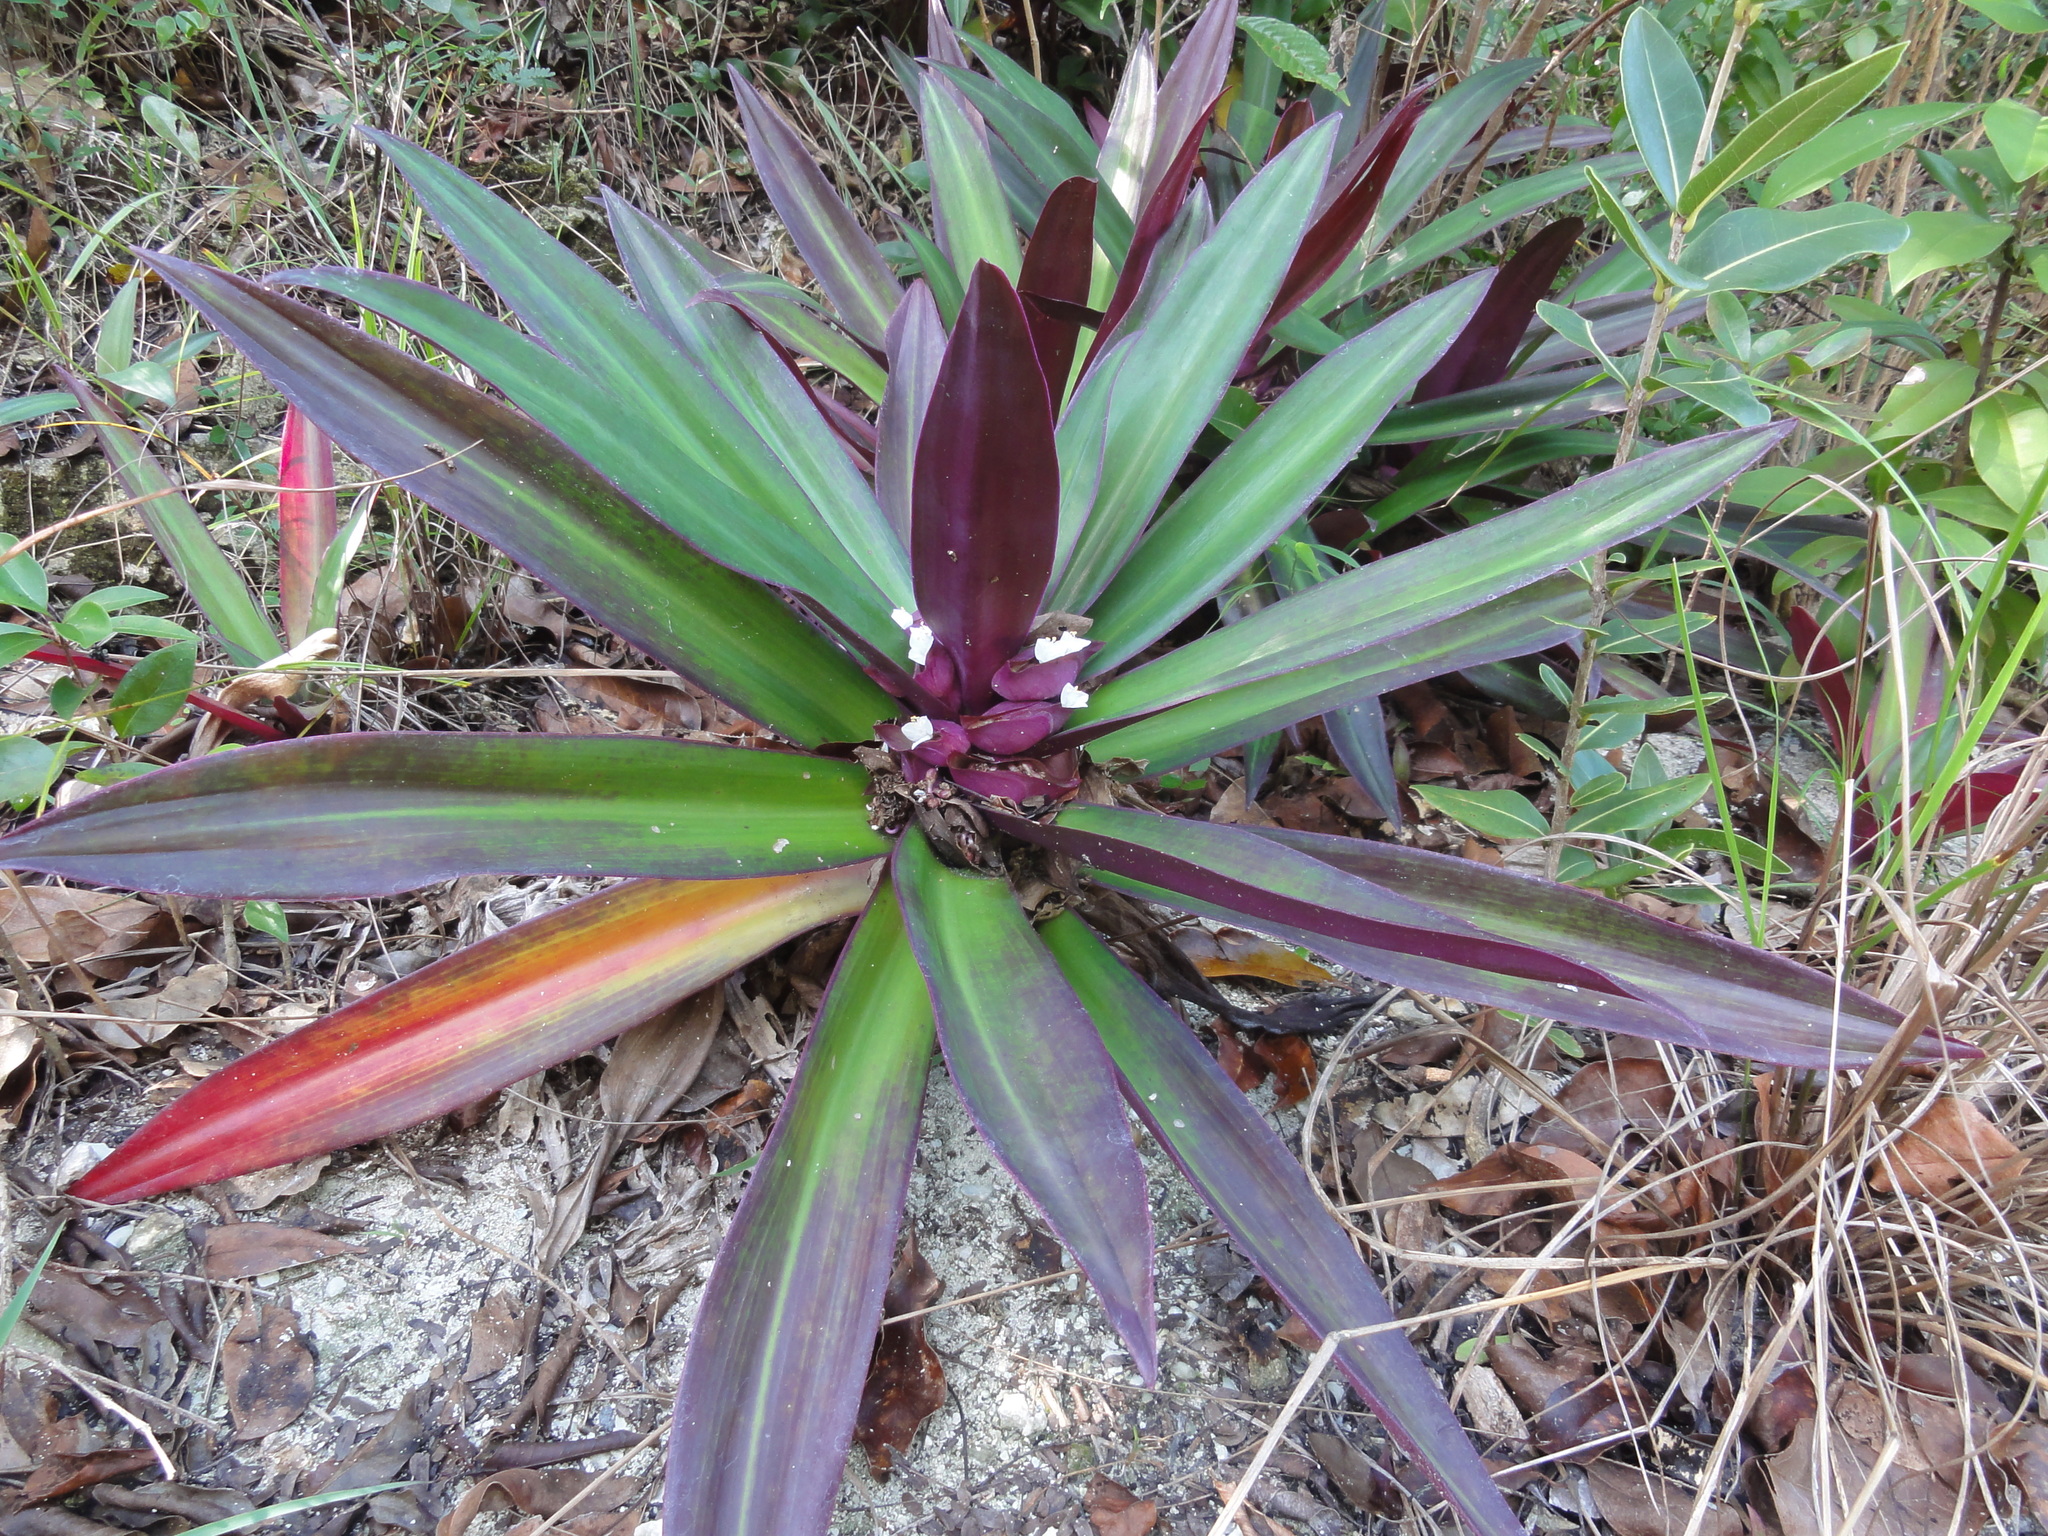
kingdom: Plantae
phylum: Tracheophyta
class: Liliopsida
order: Commelinales
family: Commelinaceae
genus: Tradescantia
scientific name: Tradescantia spathacea
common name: Boatlily
